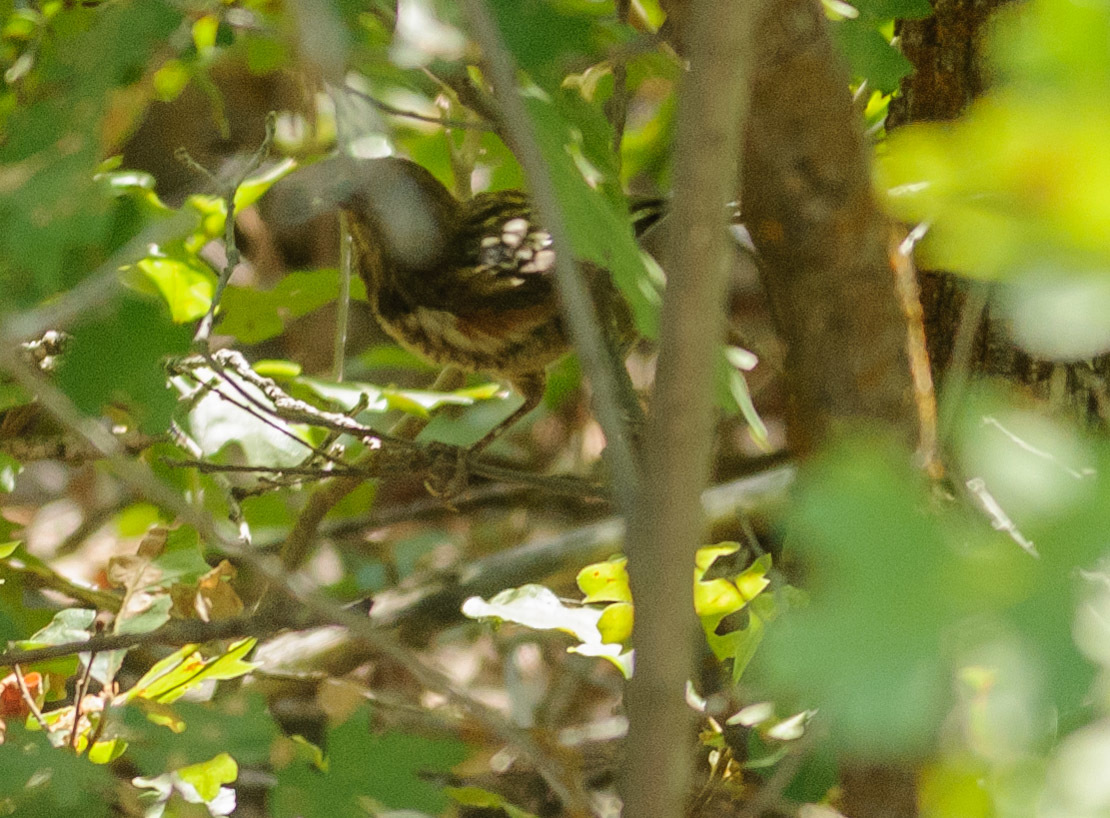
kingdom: Animalia
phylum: Chordata
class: Aves
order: Passeriformes
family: Passerellidae
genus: Pipilo
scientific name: Pipilo maculatus
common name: Spotted towhee
